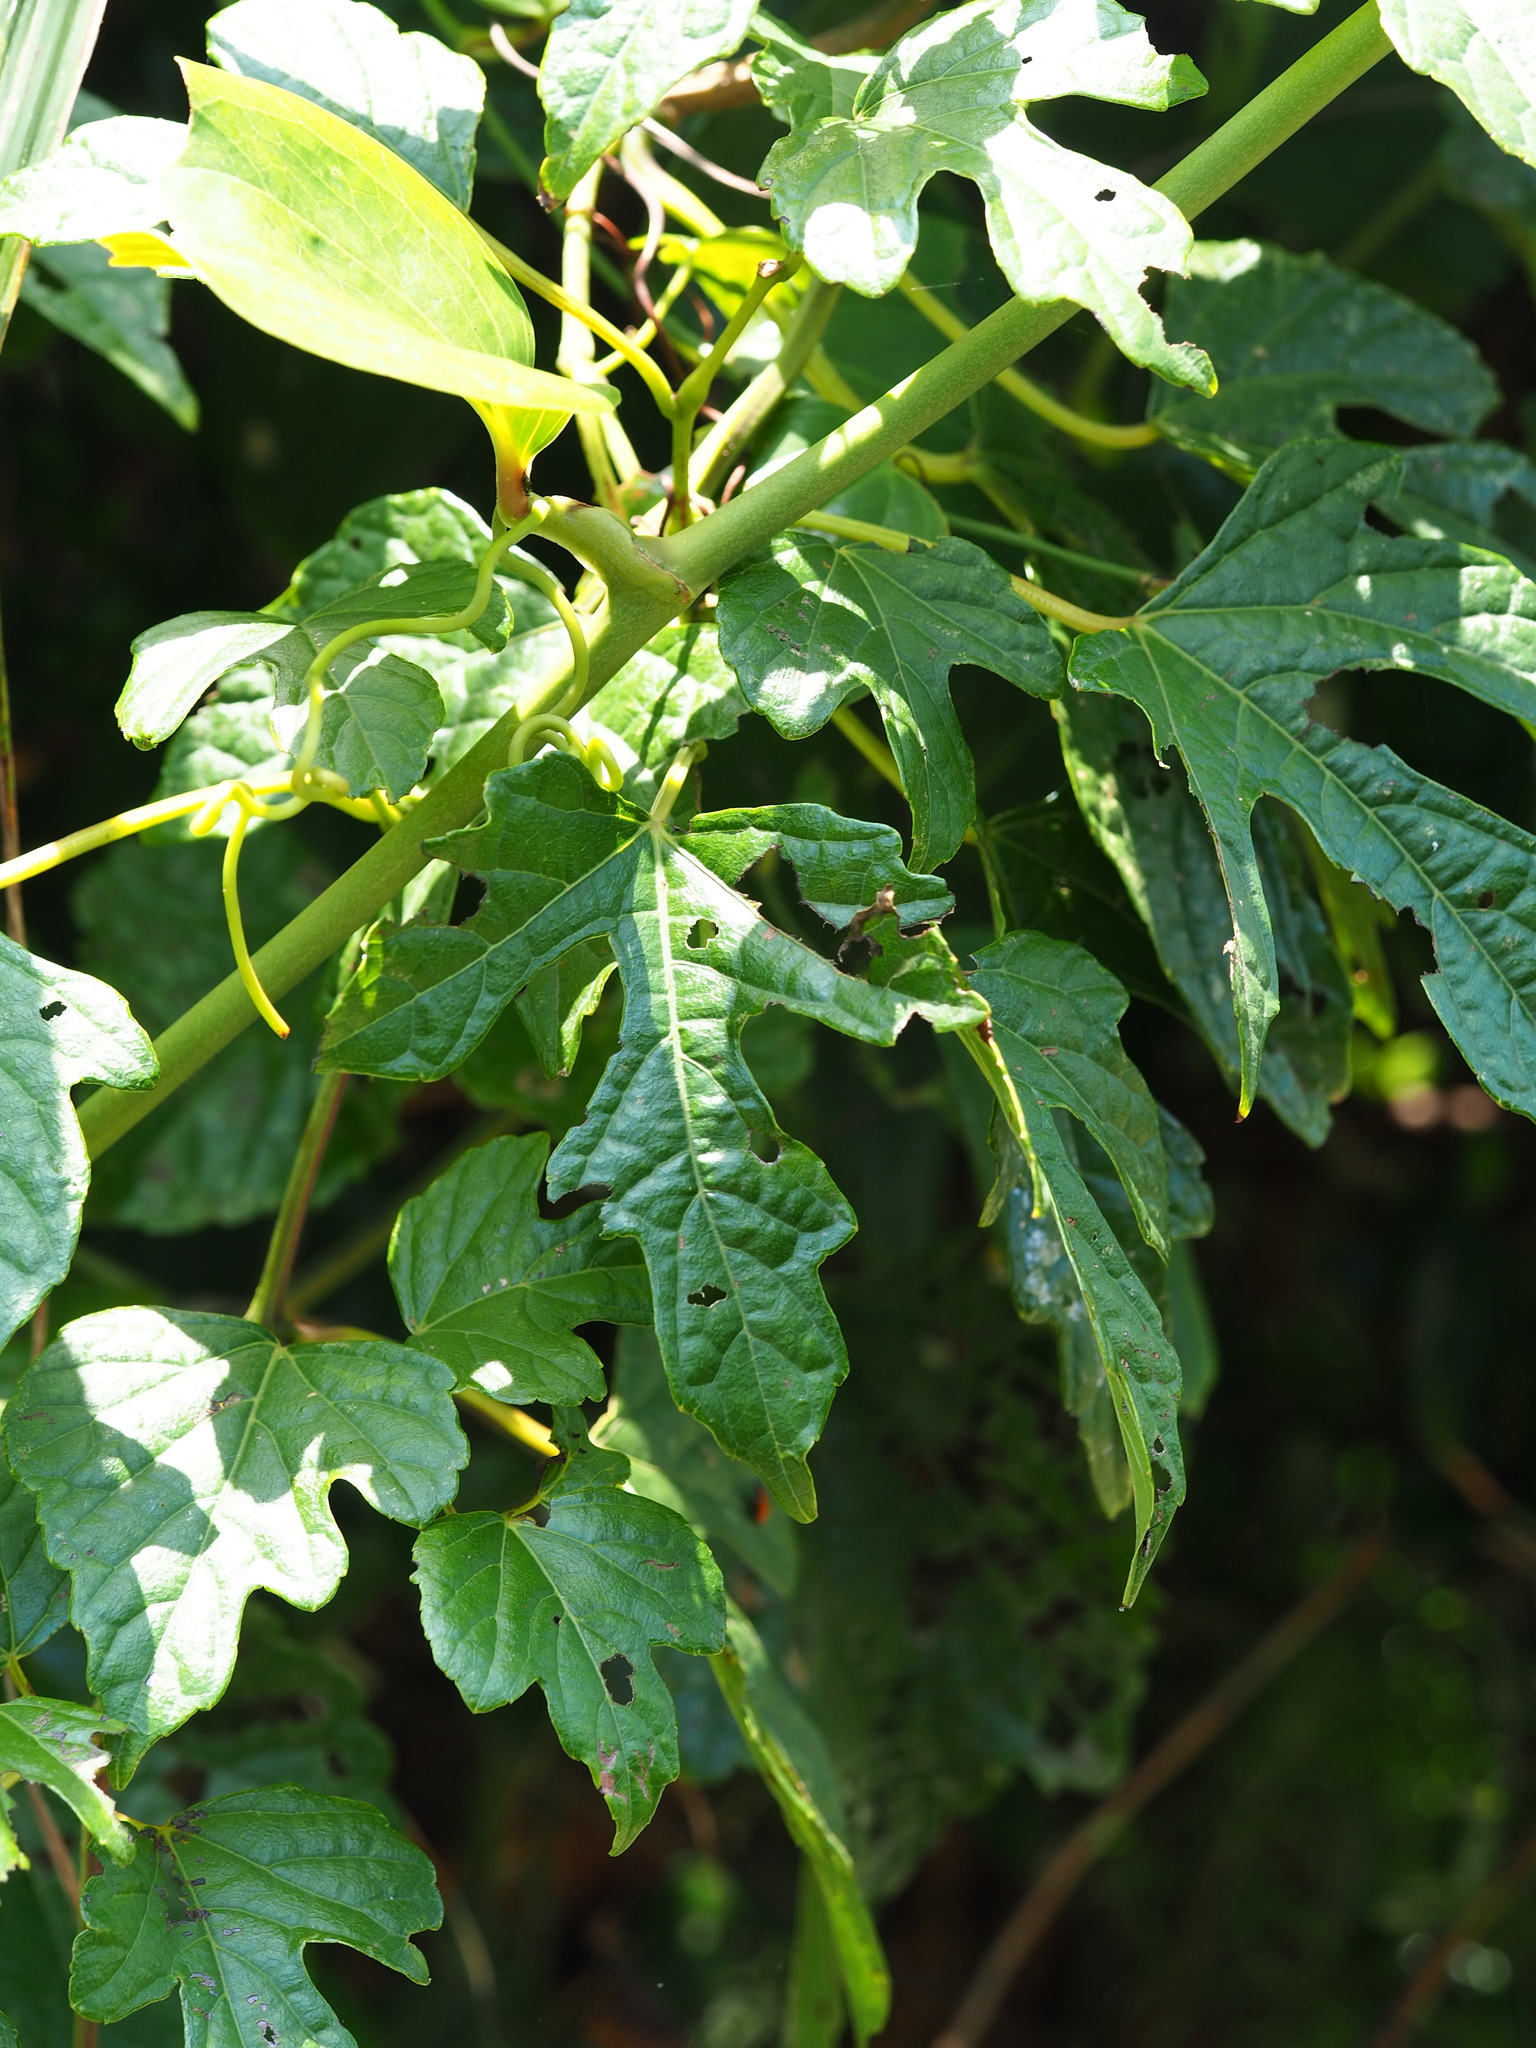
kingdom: Plantae
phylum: Tracheophyta
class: Magnoliopsida
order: Vitales
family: Vitaceae
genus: Ampelopsis
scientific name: Ampelopsis glandulosa
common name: Amur peppervine
